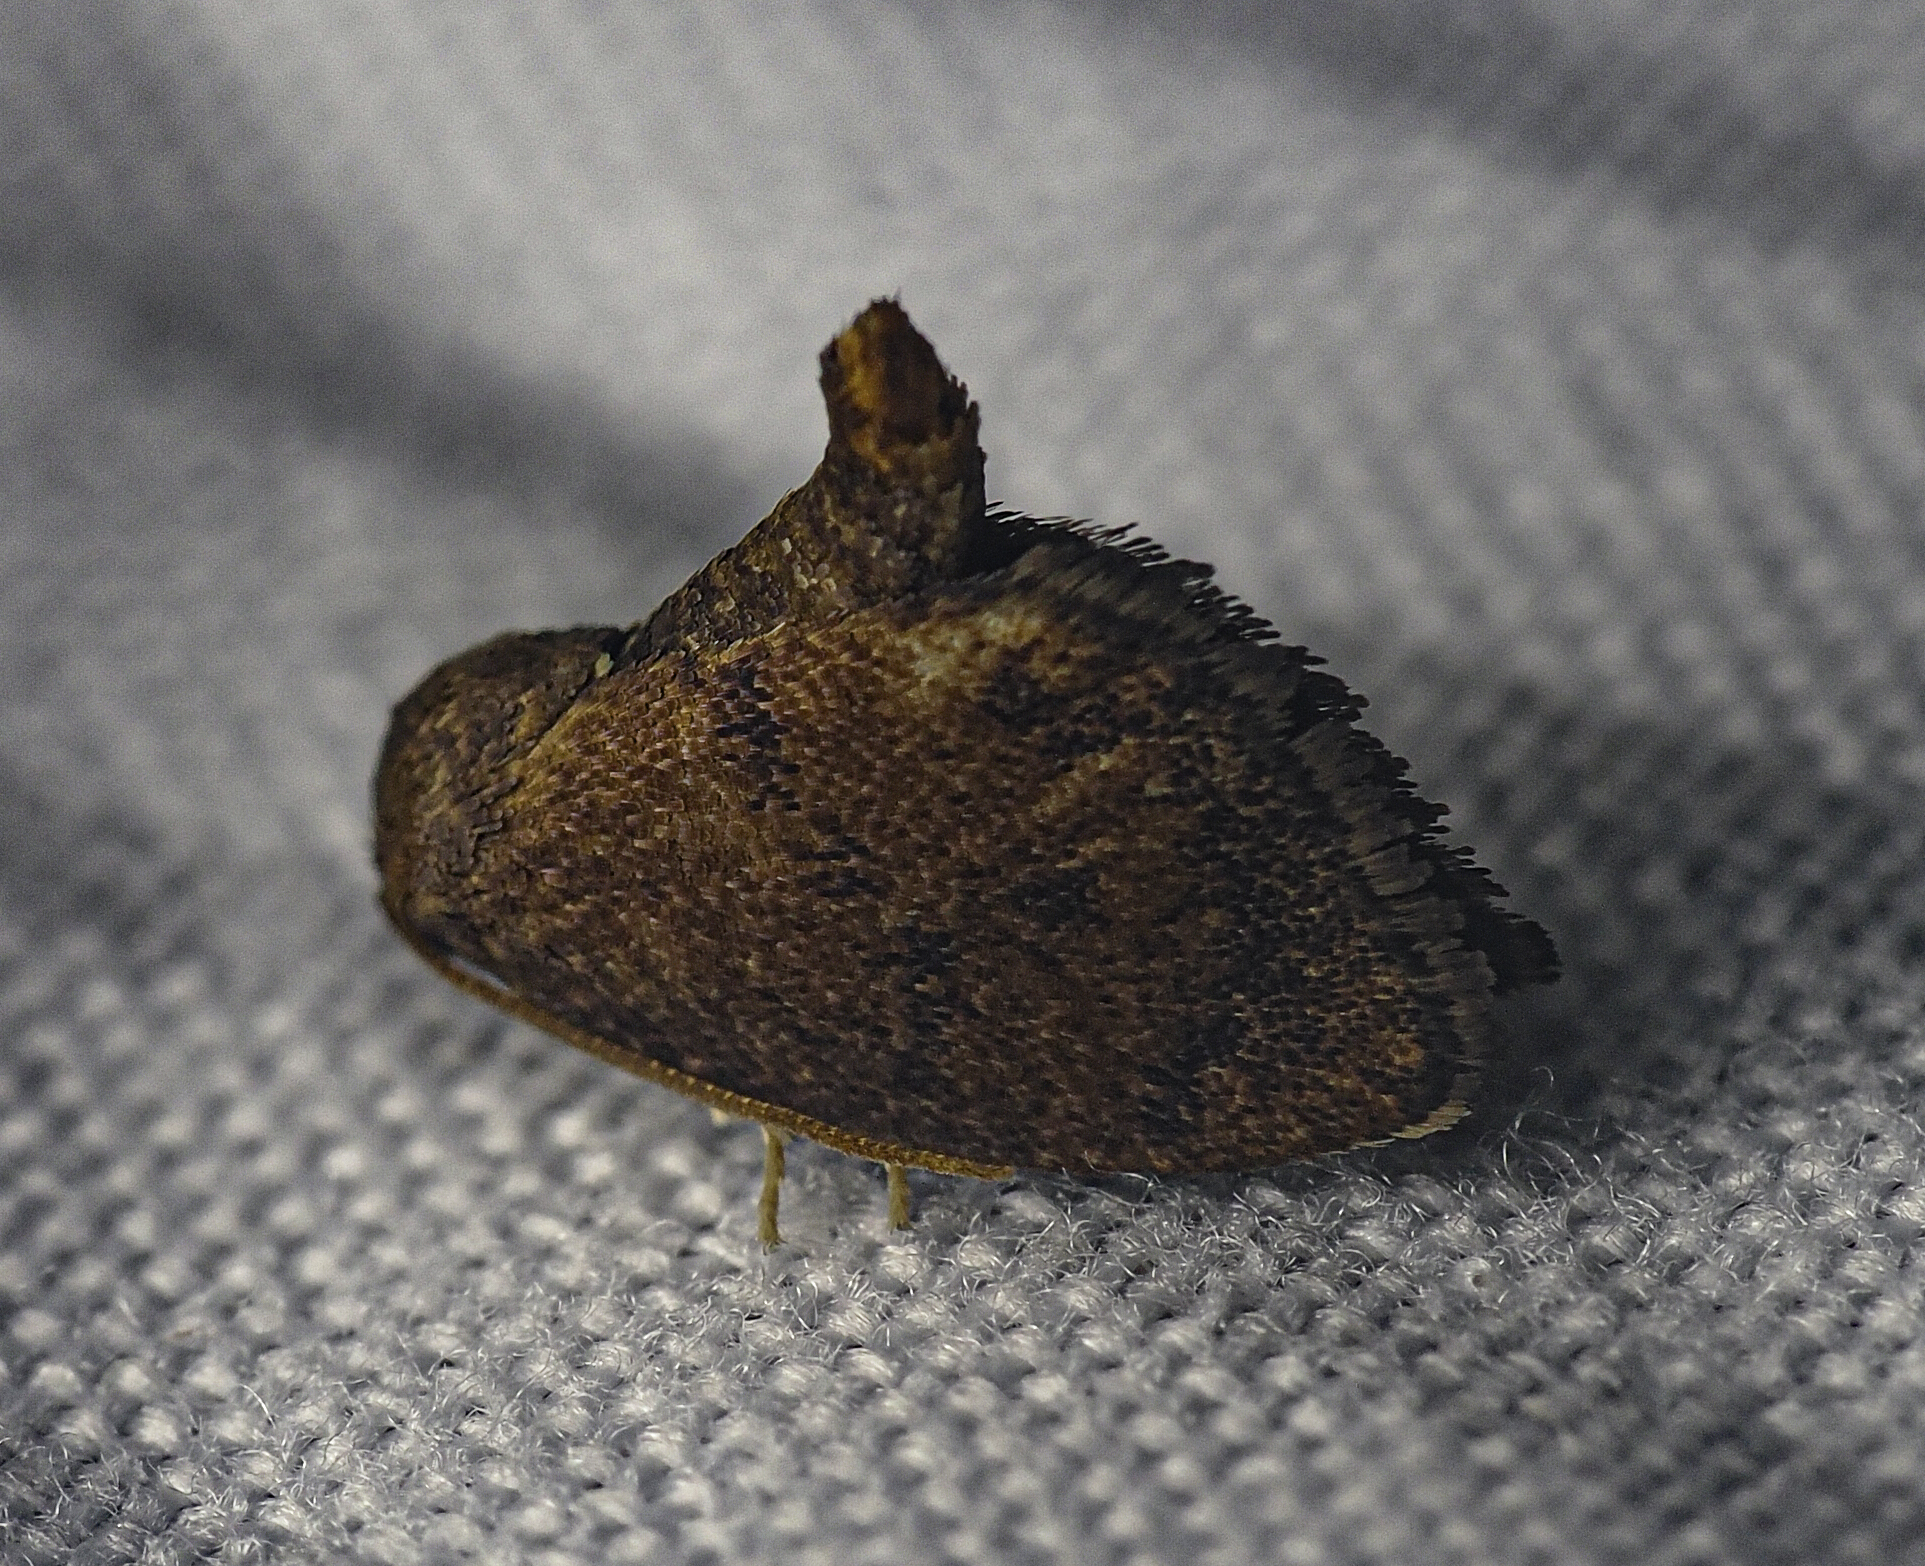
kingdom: Animalia
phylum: Arthropoda
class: Insecta
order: Lepidoptera
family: Limacodidae
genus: Heterogenea
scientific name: Heterogenea shurtleffi
